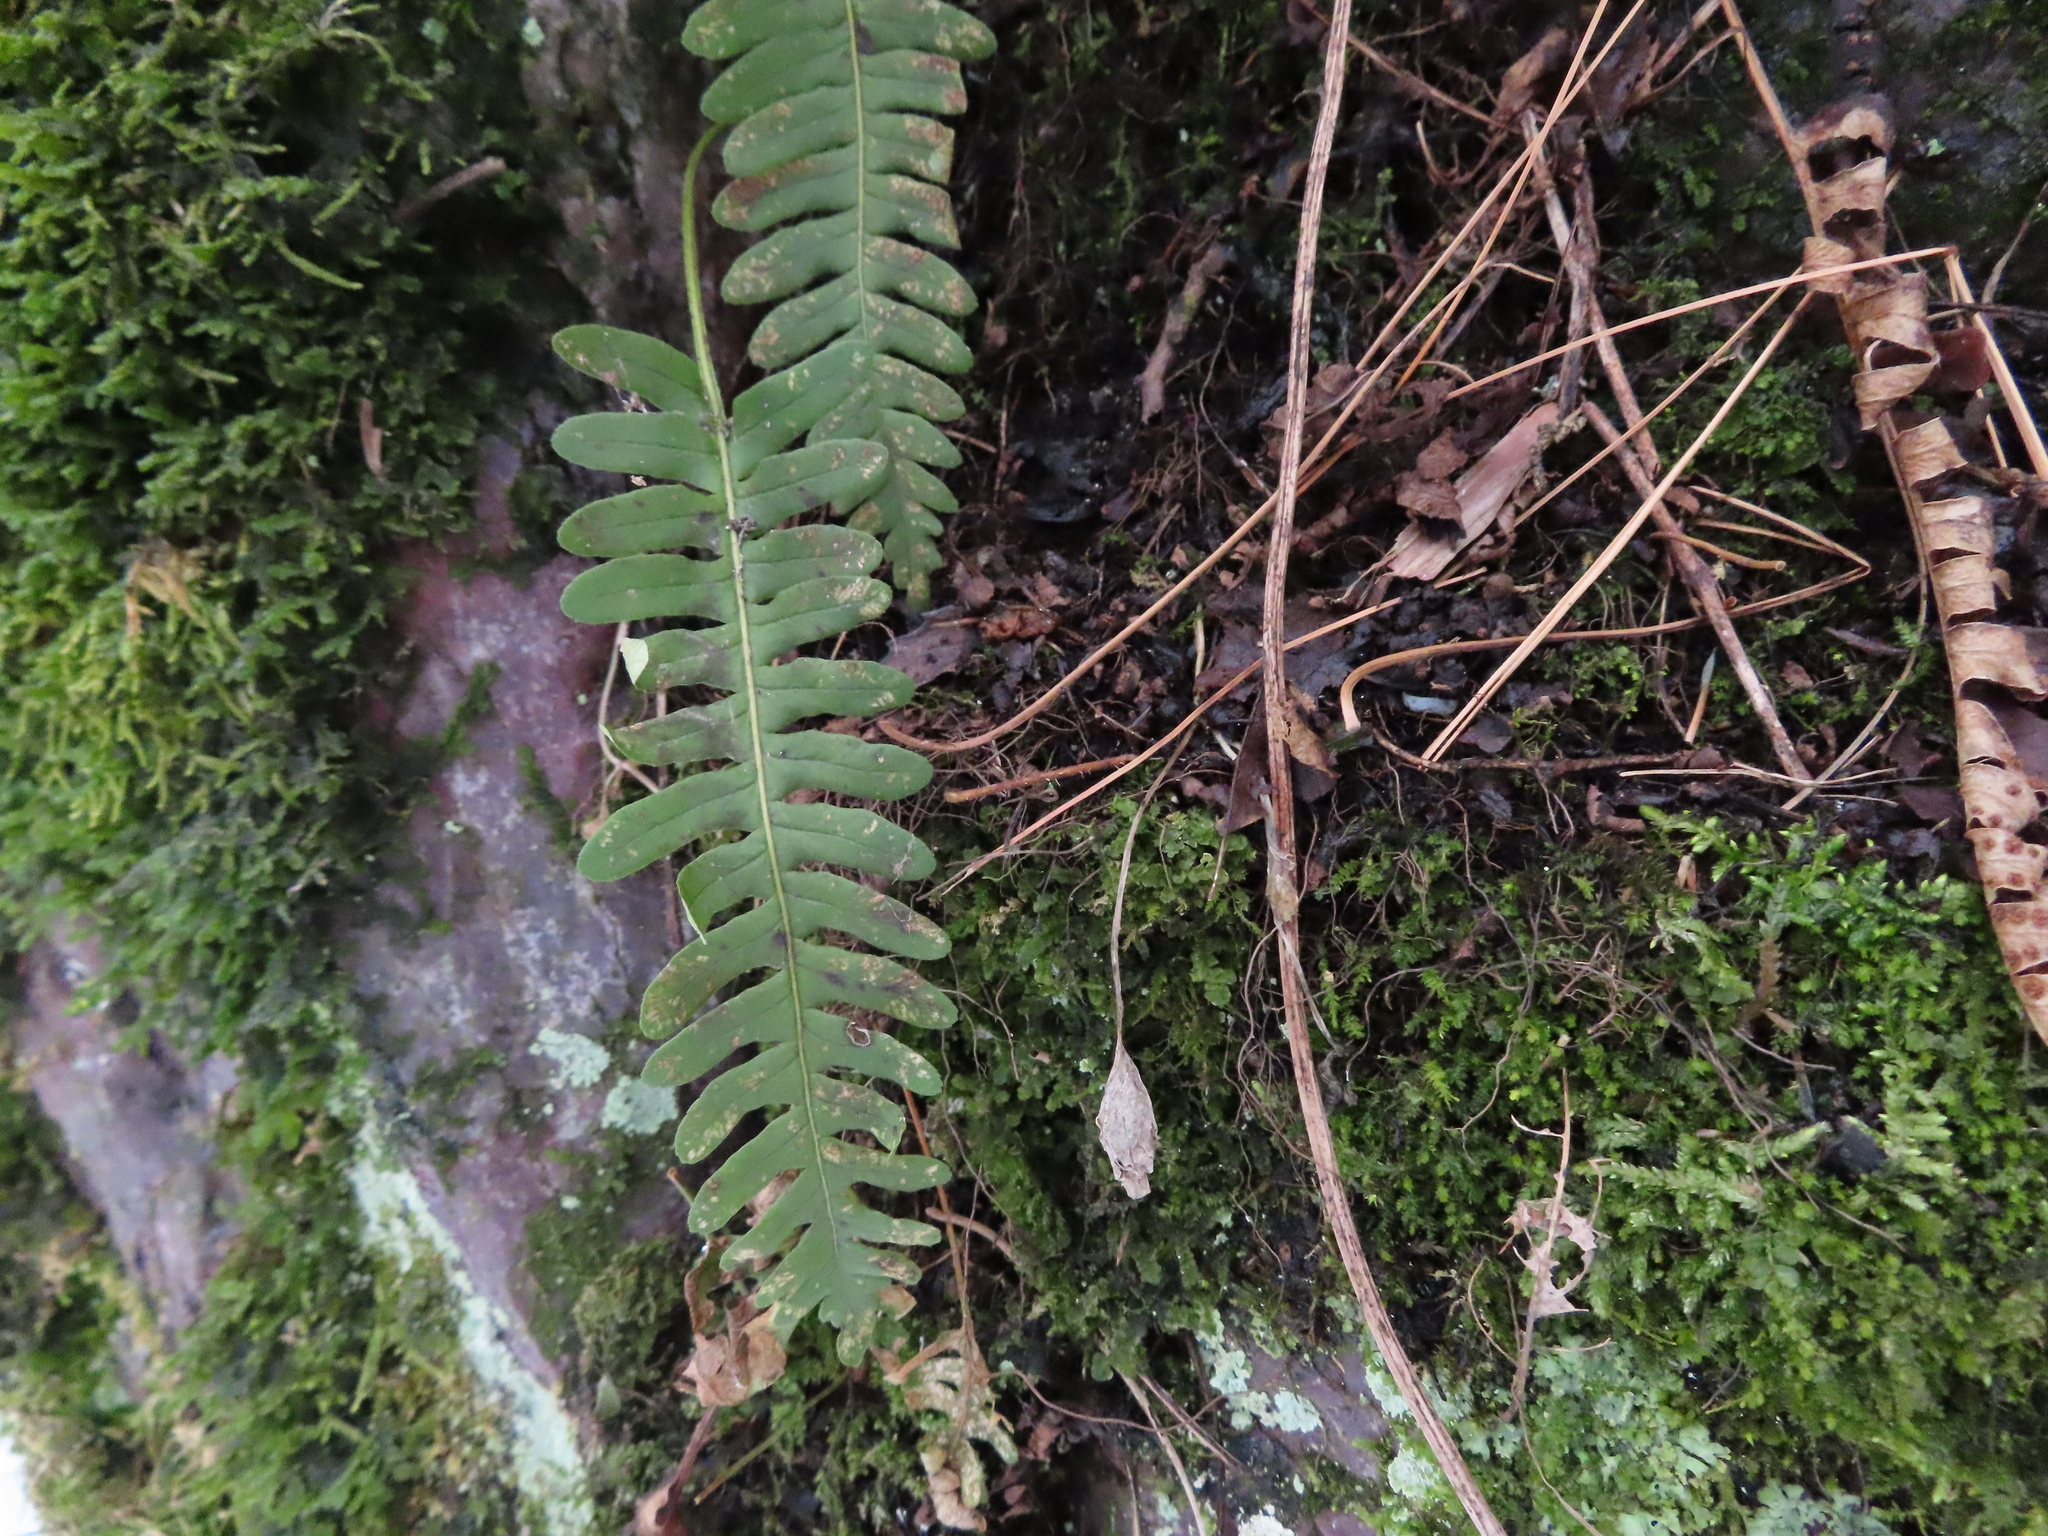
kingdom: Plantae
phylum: Tracheophyta
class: Polypodiopsida
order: Polypodiales
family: Polypodiaceae
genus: Polypodium
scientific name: Polypodium virginianum
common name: American wall fern
